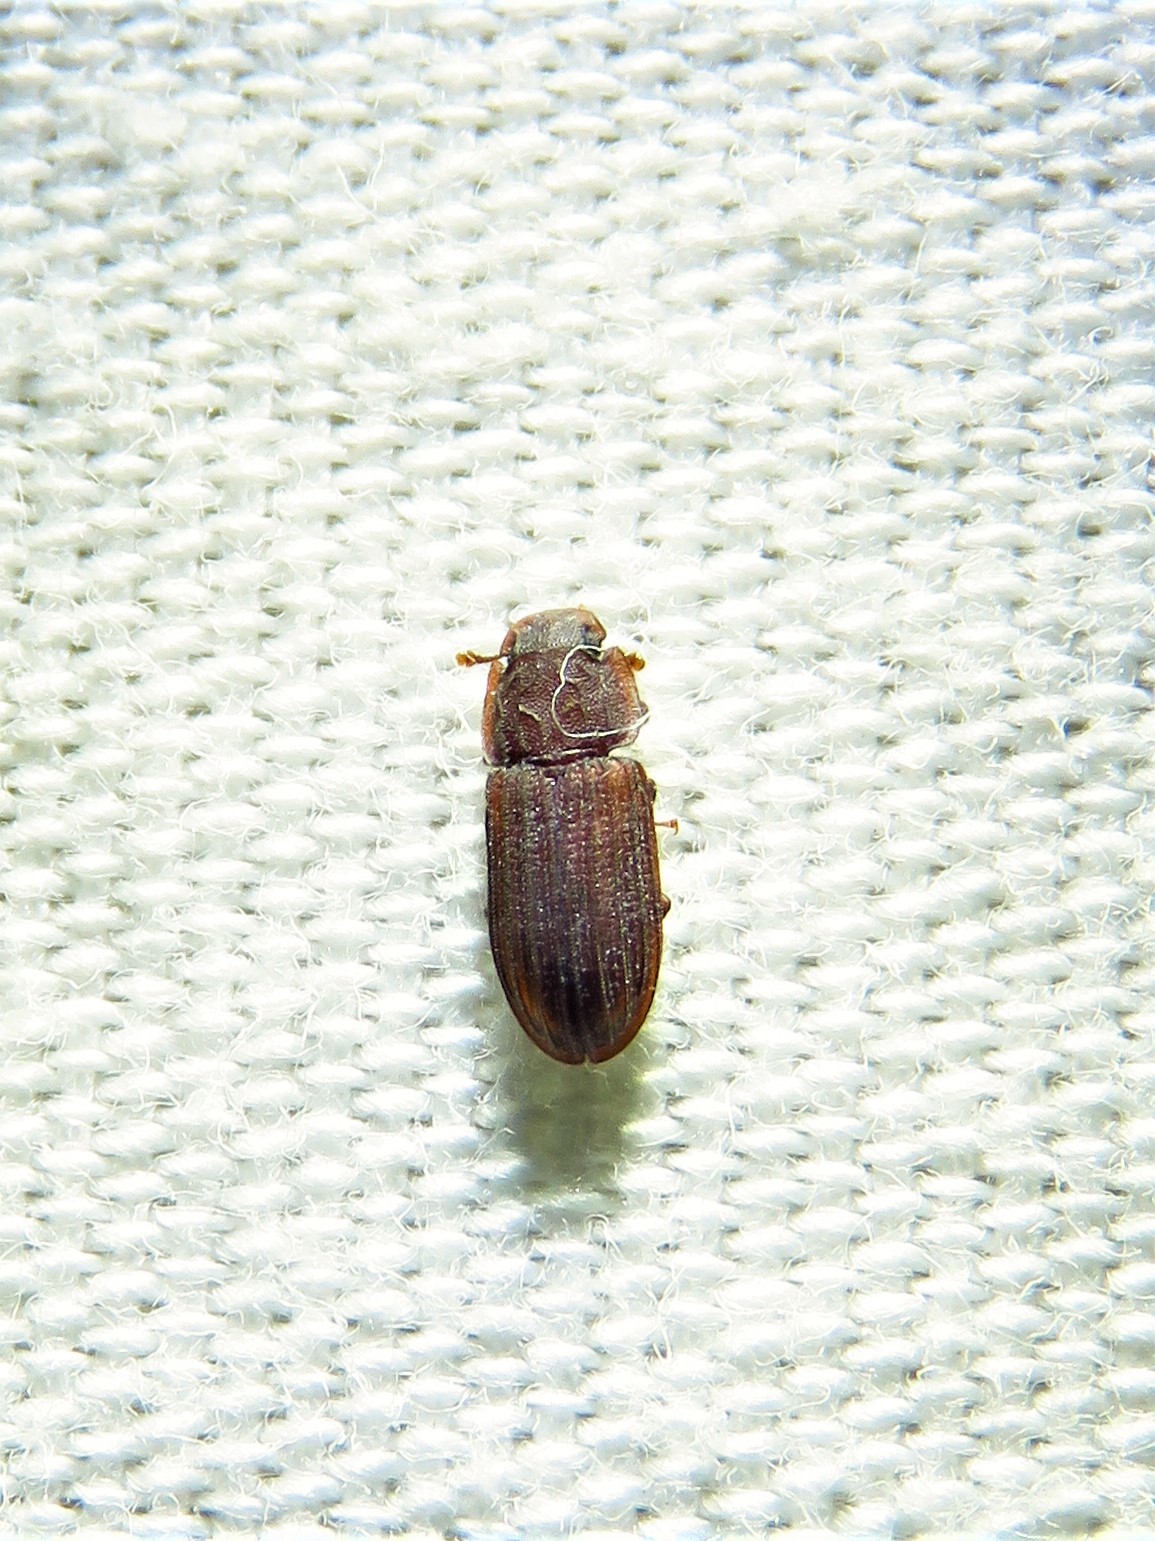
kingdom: Animalia
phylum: Arthropoda
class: Insecta
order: Coleoptera
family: Zopheridae
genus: Phloeonemus
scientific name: Phloeonemus catenulatus
